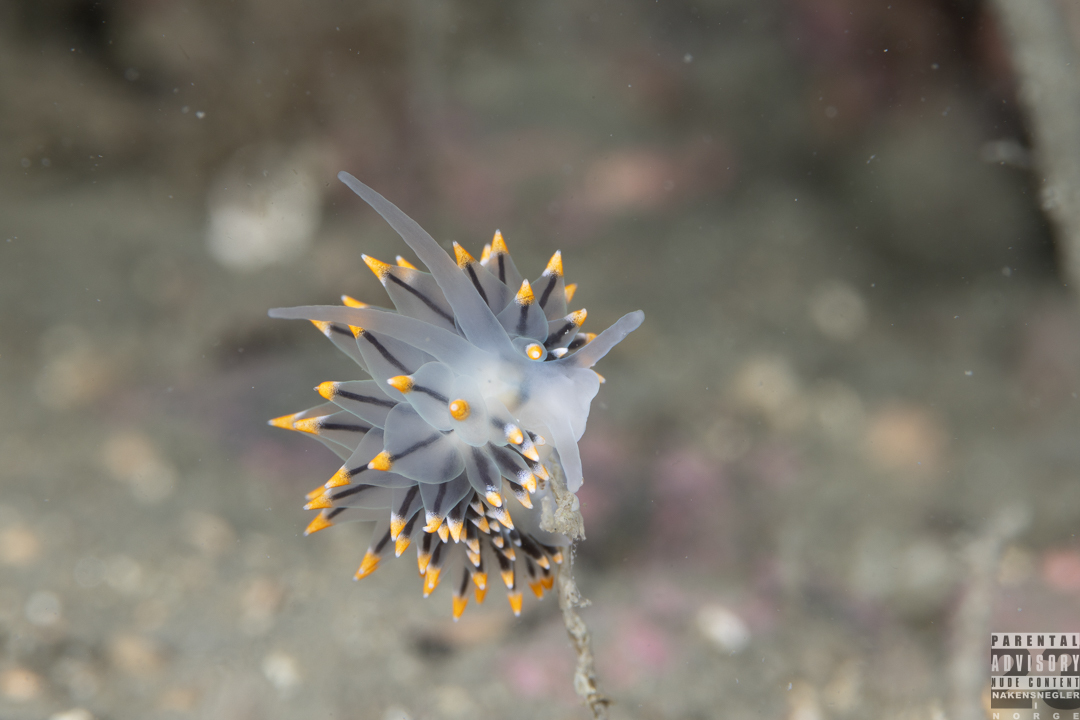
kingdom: Animalia
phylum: Mollusca
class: Gastropoda
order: Nudibranchia
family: Eubranchidae
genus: Eubranchus
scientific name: Eubranchus tricolor
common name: Painted balloon aeolis
